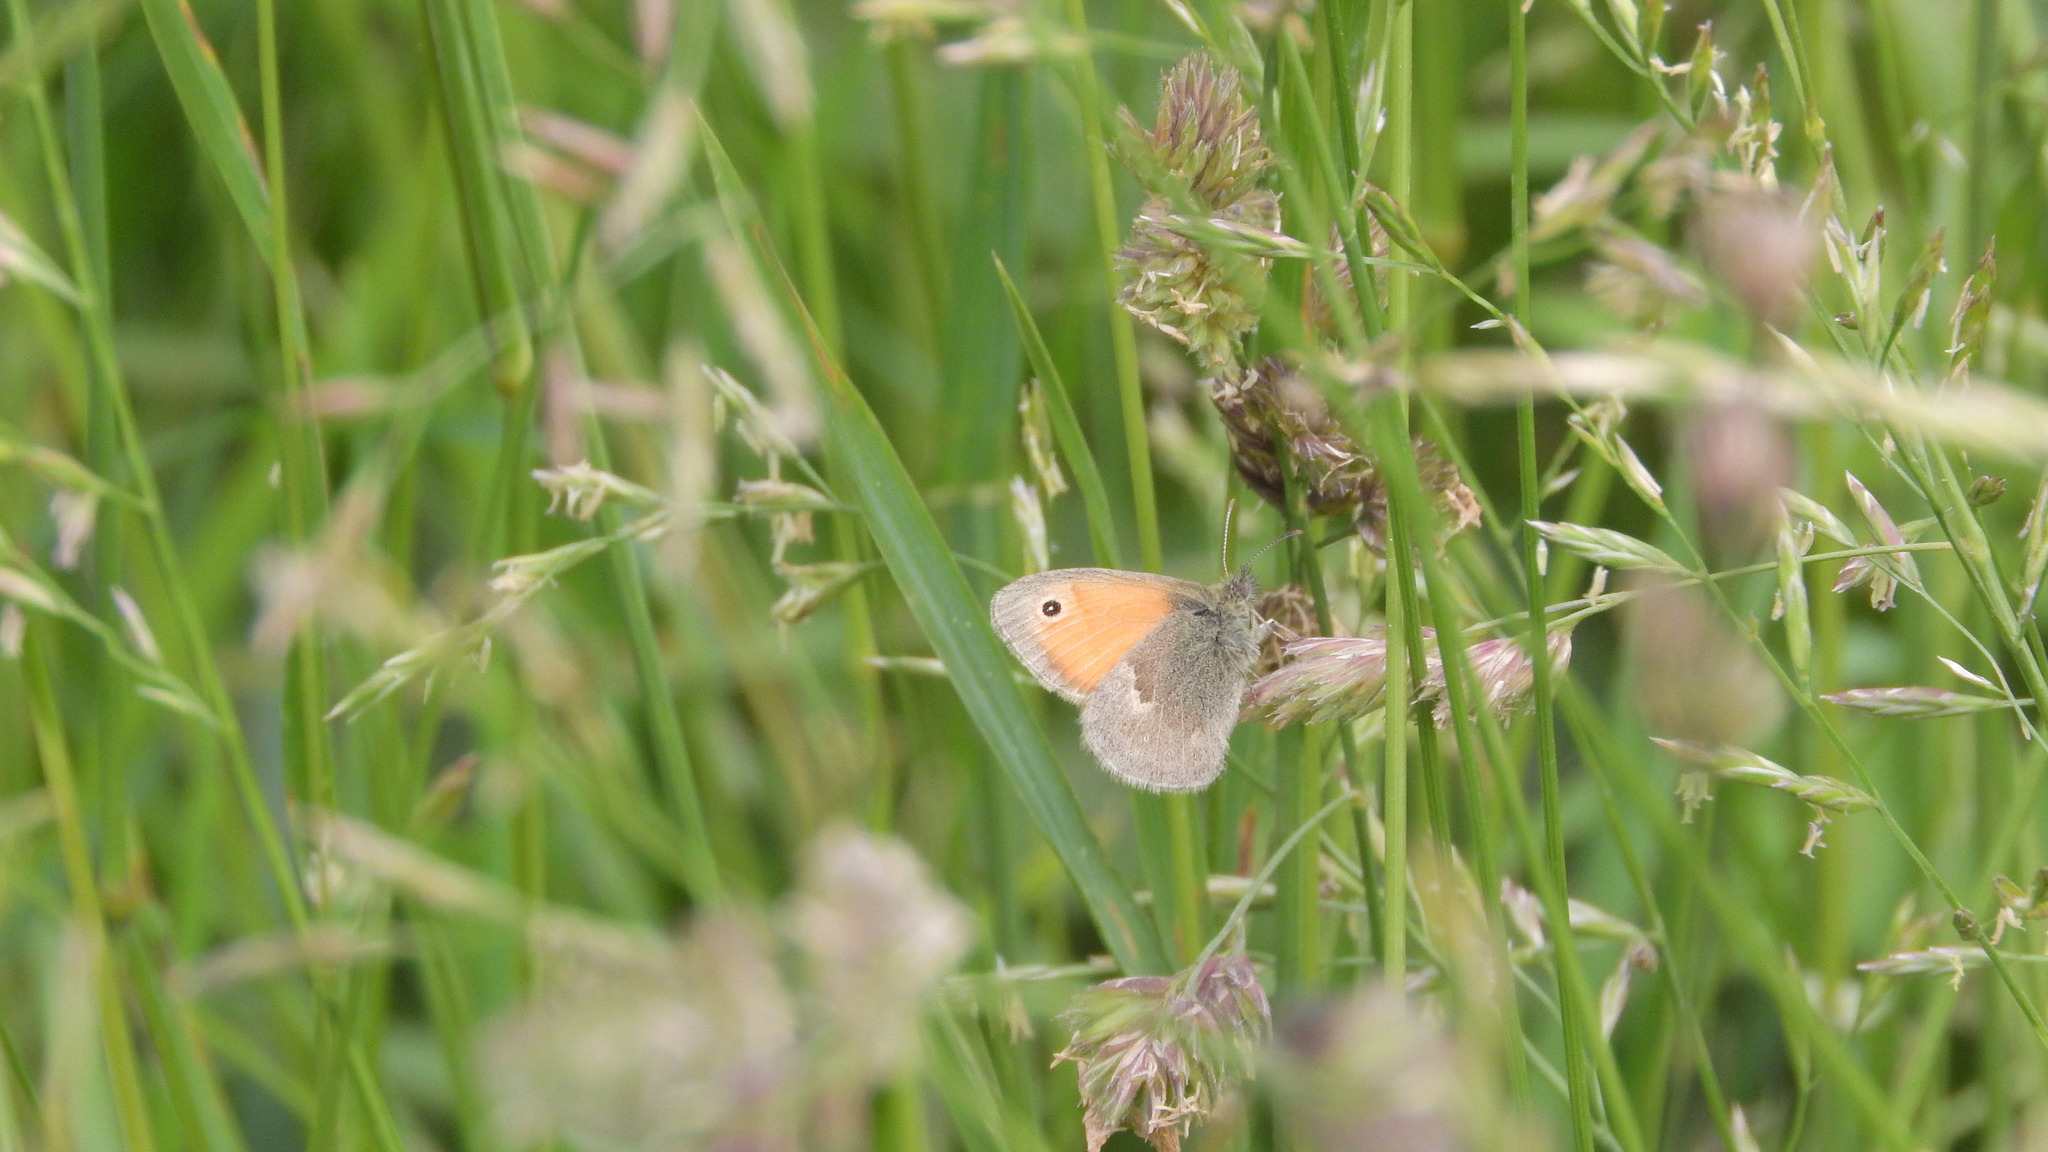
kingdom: Animalia
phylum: Arthropoda
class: Insecta
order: Lepidoptera
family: Nymphalidae
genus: Coenonympha
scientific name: Coenonympha pamphilus
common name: Small heath
